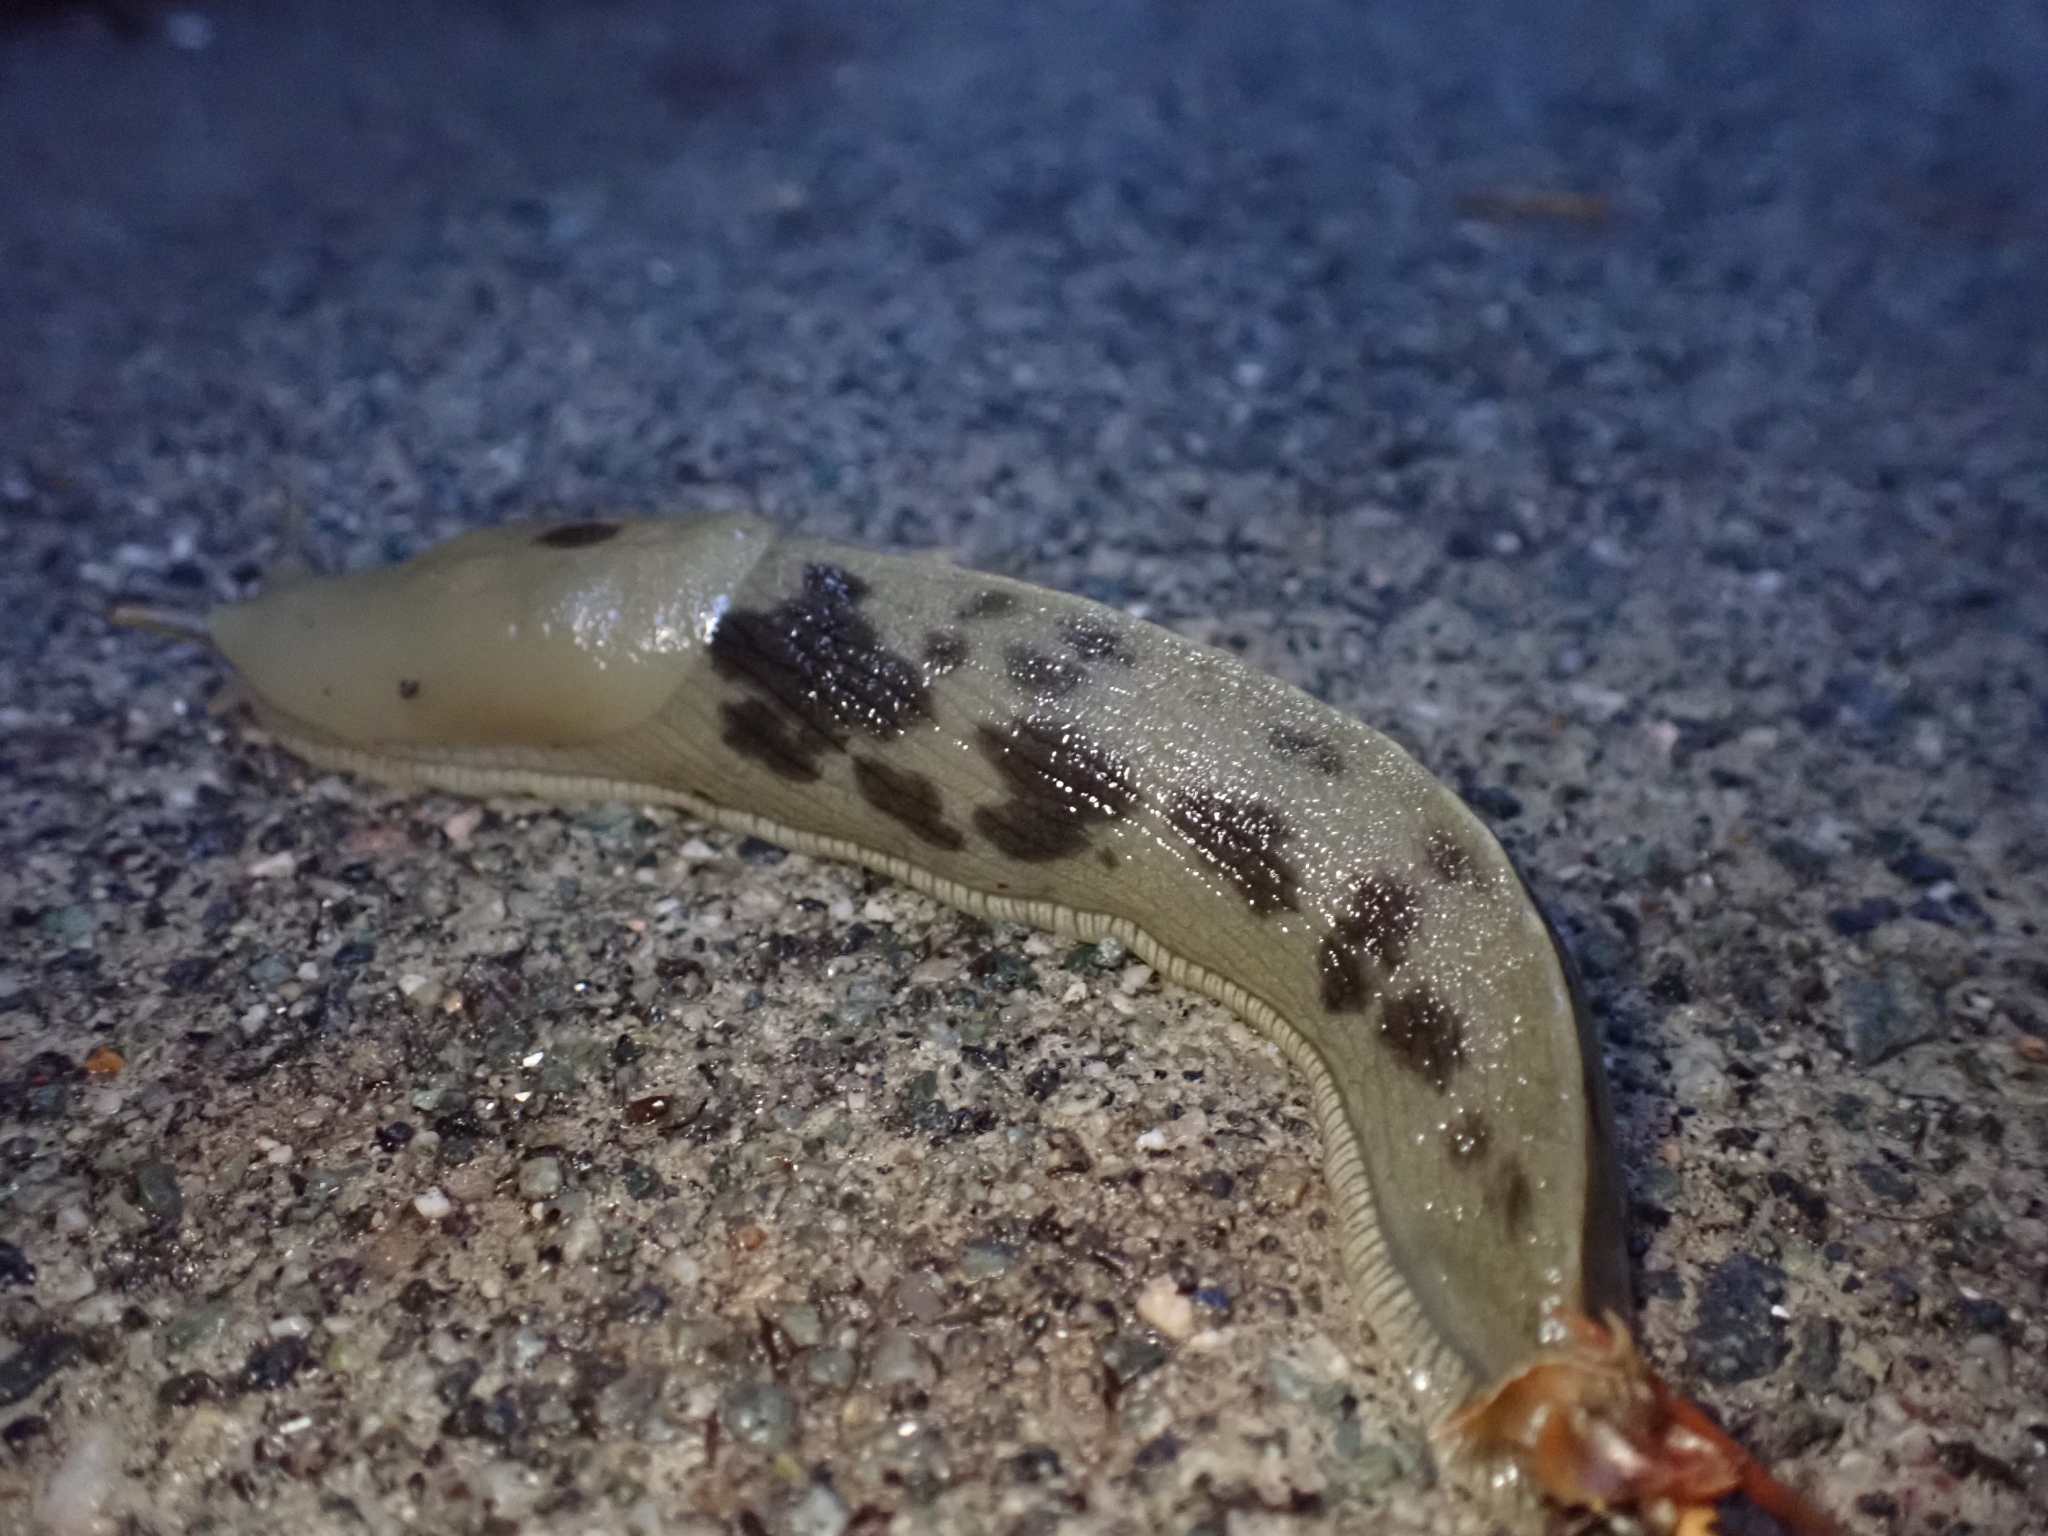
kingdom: Animalia
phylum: Mollusca
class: Gastropoda
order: Stylommatophora
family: Ariolimacidae
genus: Ariolimax
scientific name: Ariolimax columbianus
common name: Pacific banana slug
